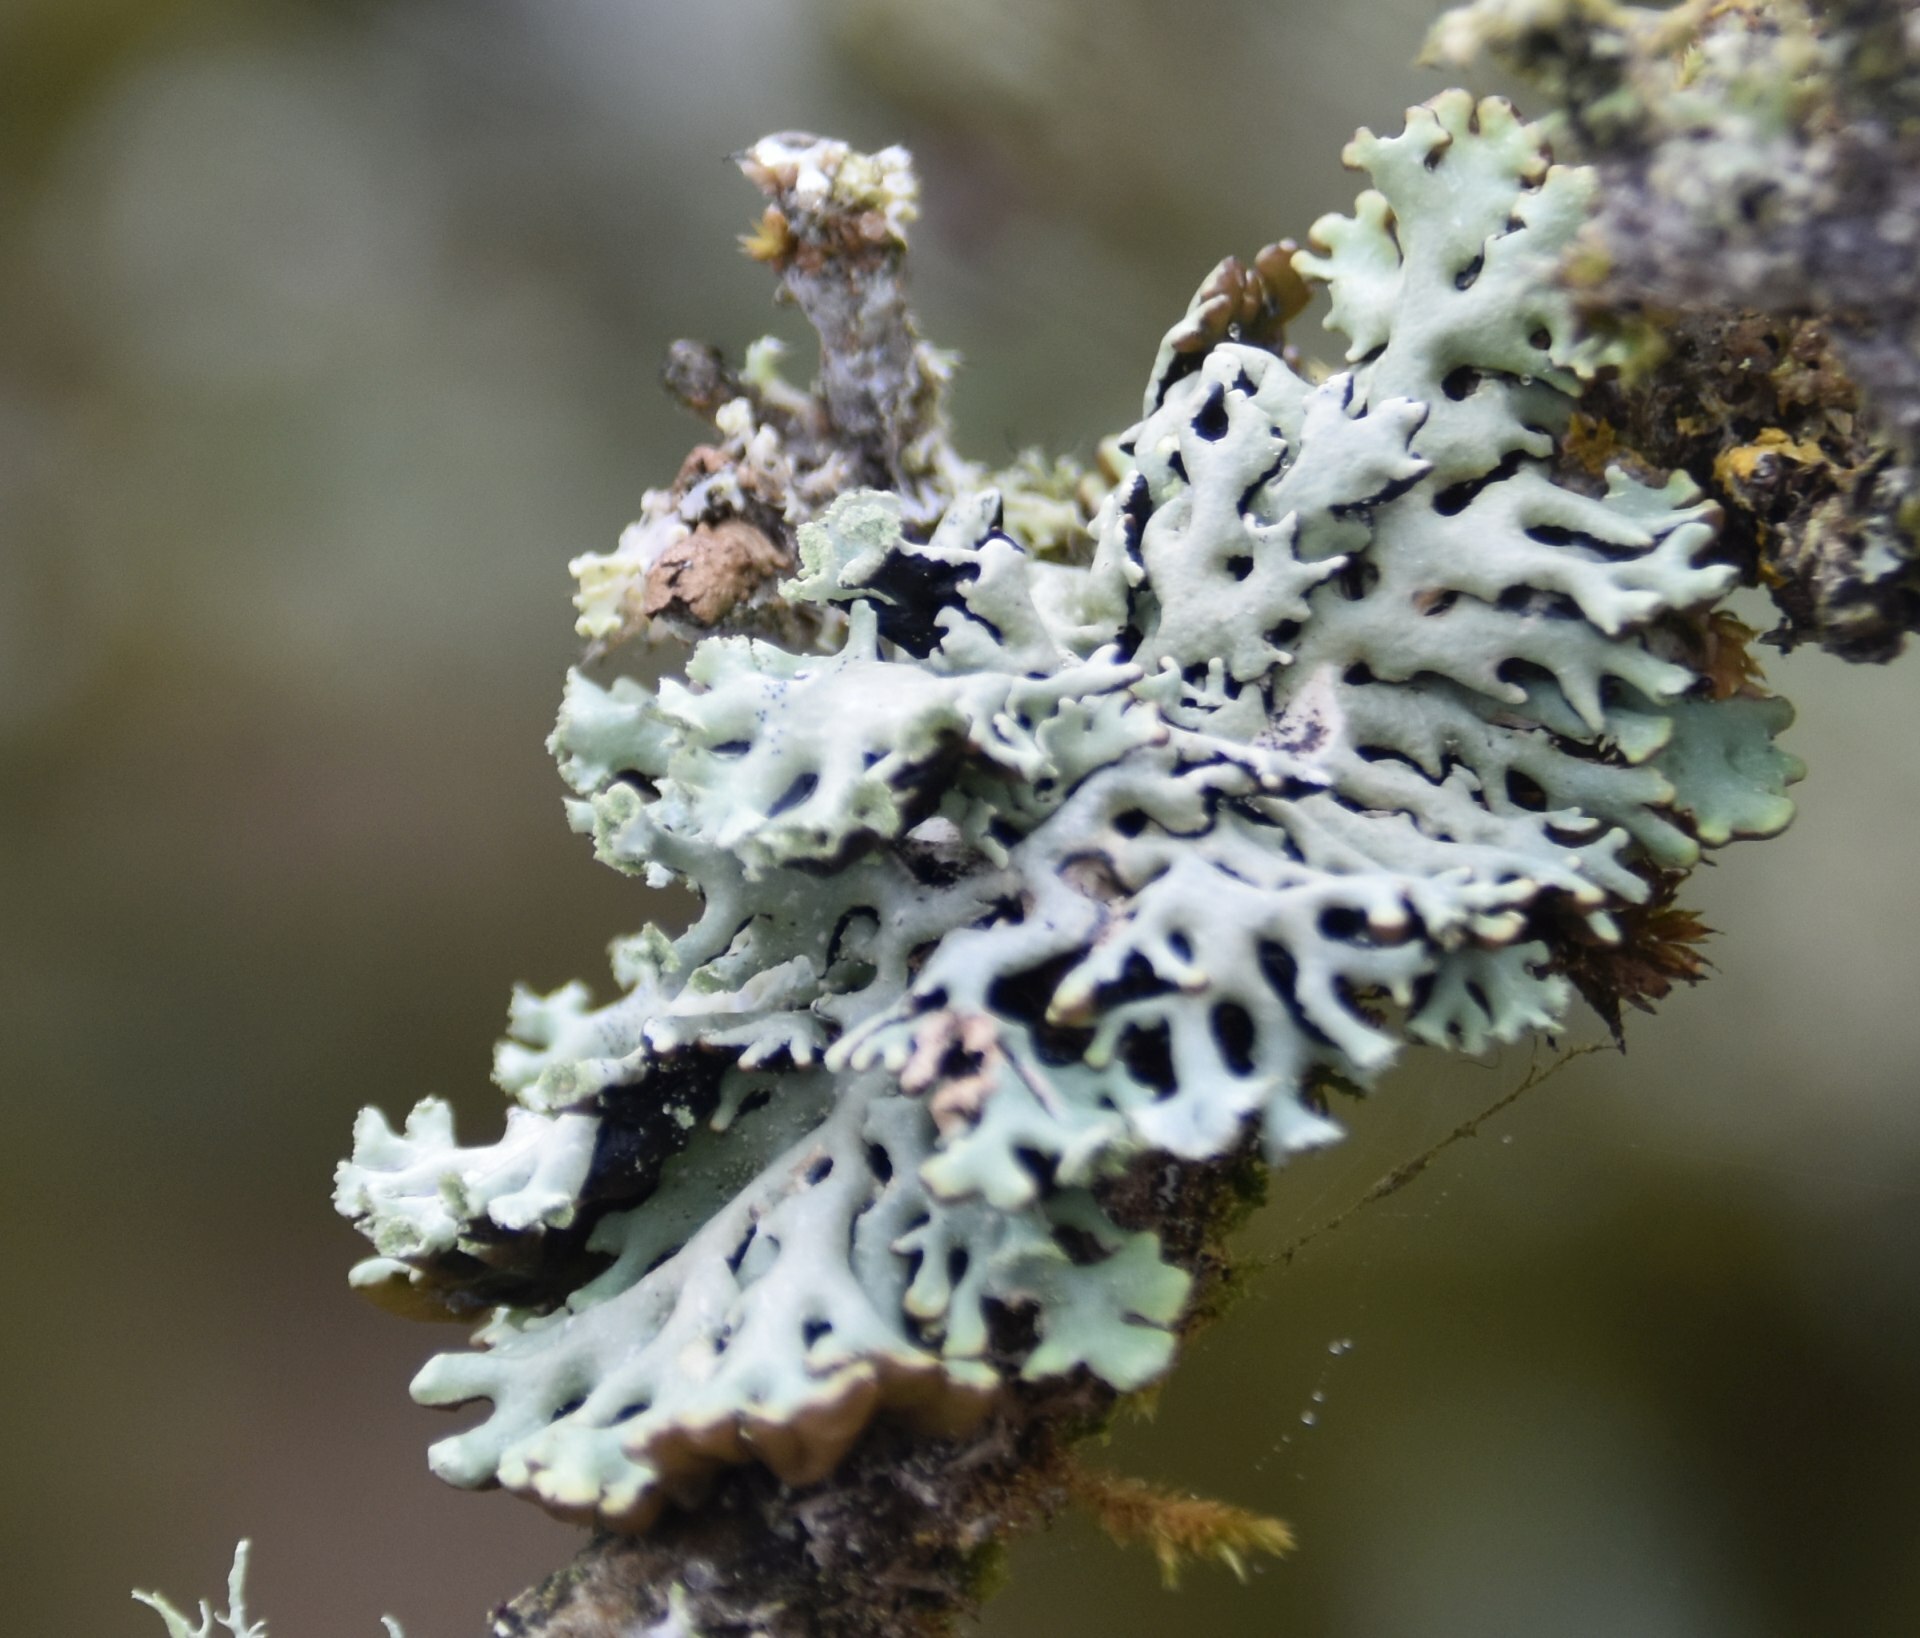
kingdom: Fungi
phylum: Ascomycota
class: Lecanoromycetes
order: Lecanorales
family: Parmeliaceae
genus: Hypogymnia
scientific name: Hypogymnia physodes
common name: Dark crottle
